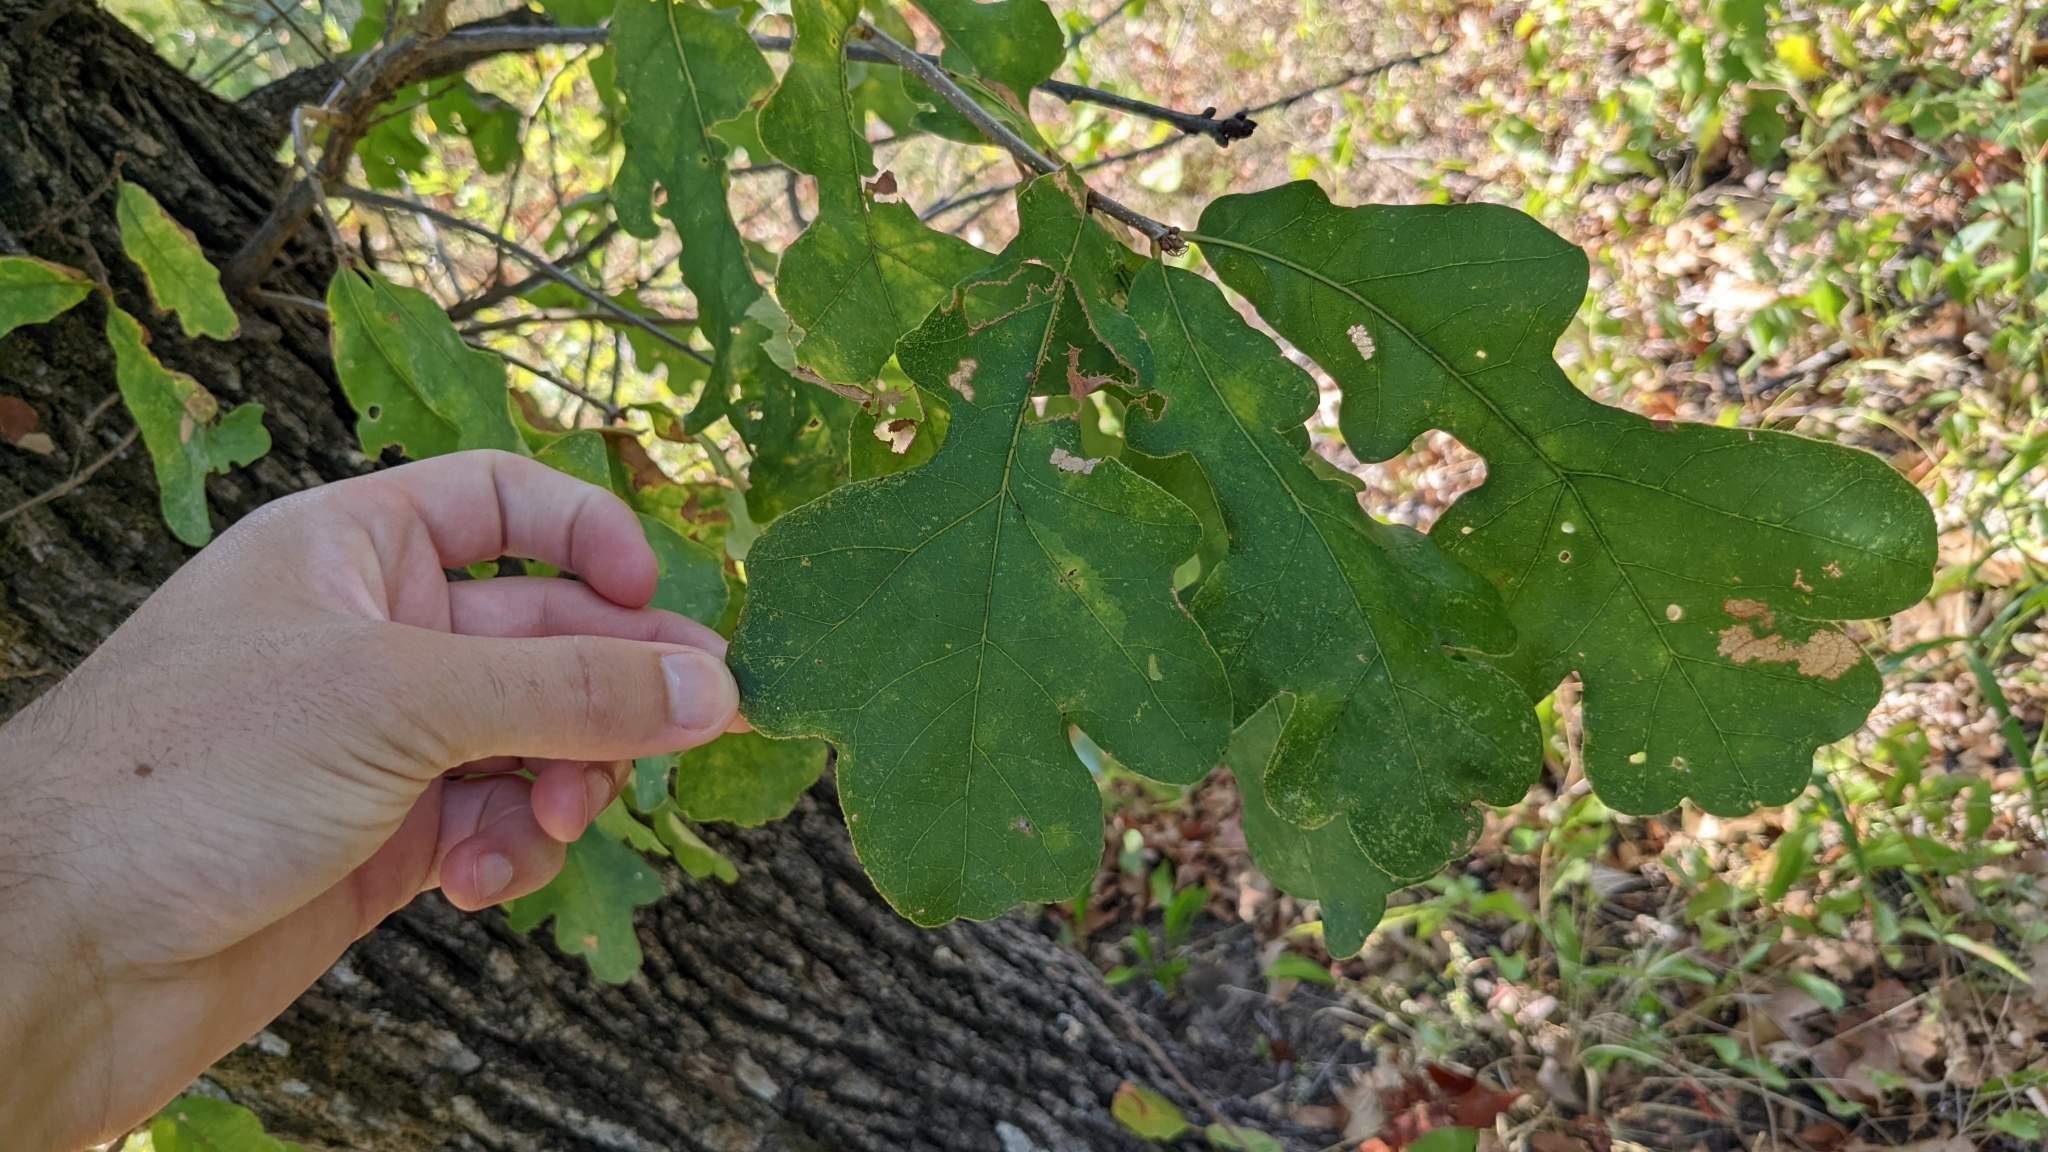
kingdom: Plantae
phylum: Tracheophyta
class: Magnoliopsida
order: Fagales
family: Fagaceae
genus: Quercus
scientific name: Quercus stellata
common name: Post oak
